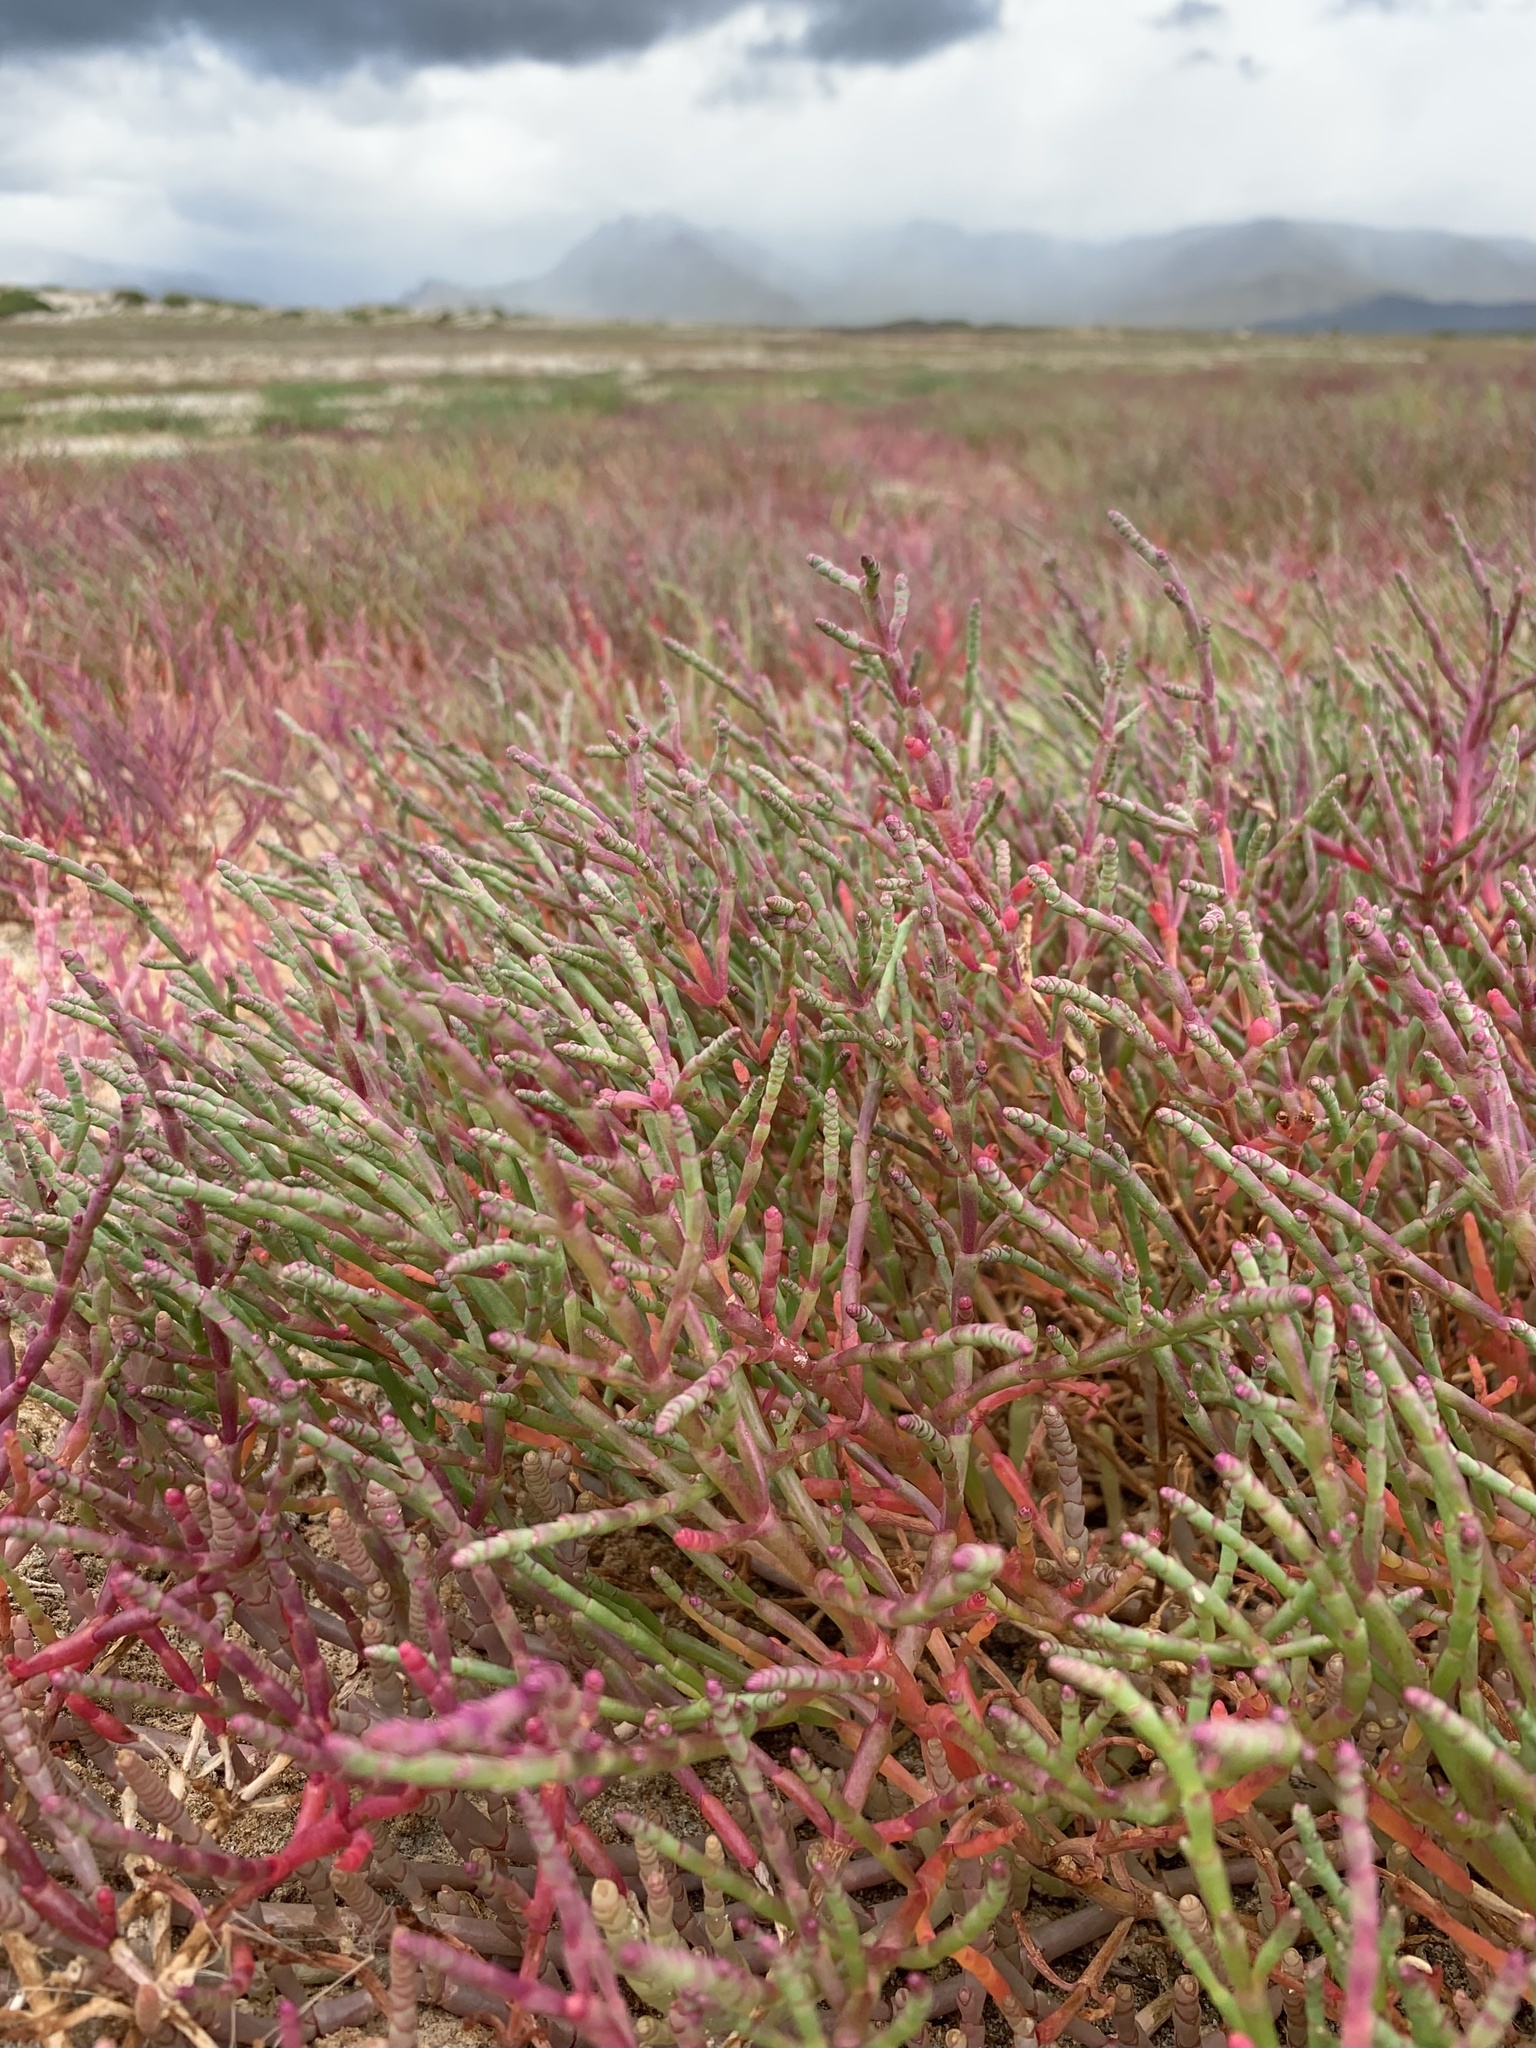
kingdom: Plantae
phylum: Tracheophyta
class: Magnoliopsida
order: Caryophyllales
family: Amaranthaceae
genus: Salicornia
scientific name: Salicornia meyeriana
